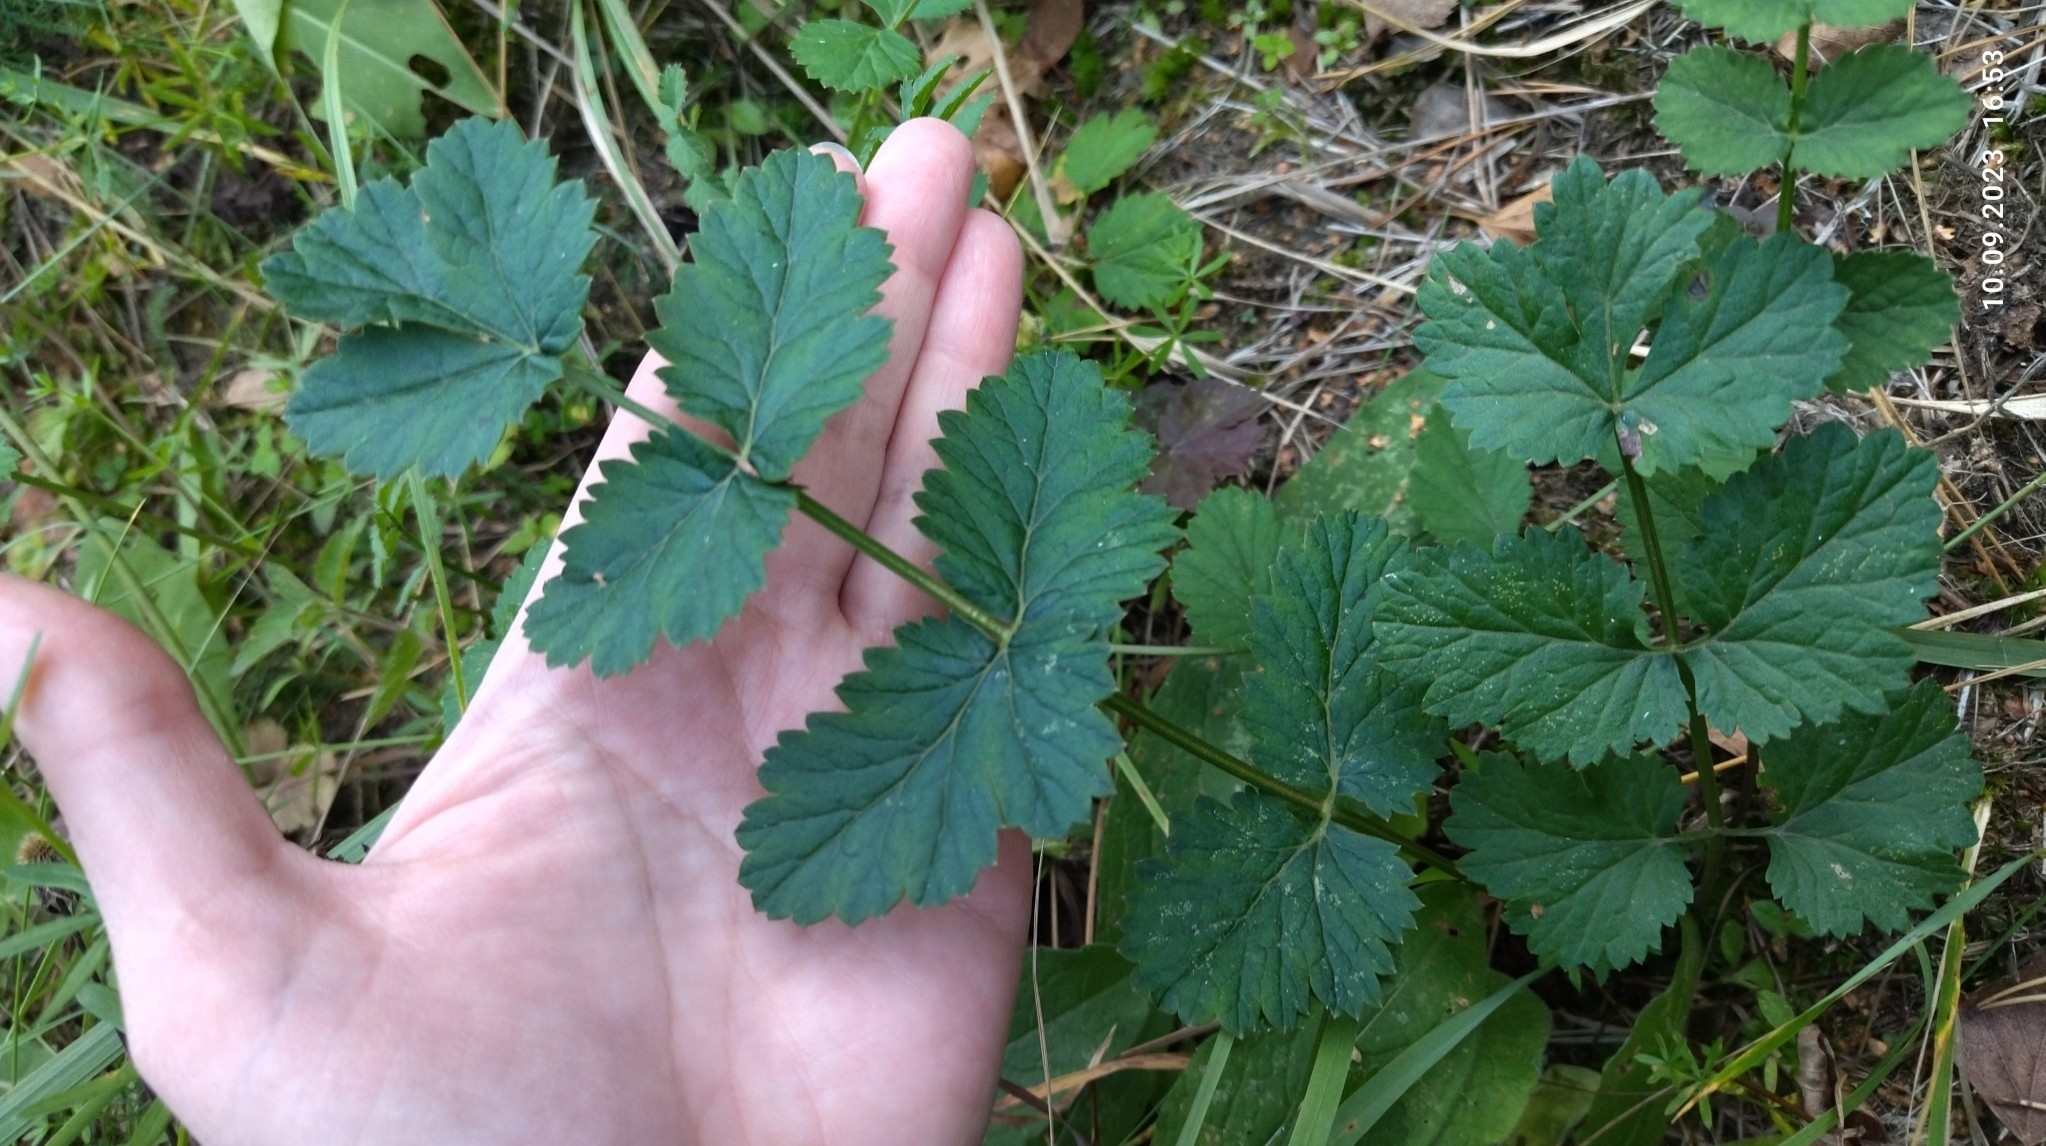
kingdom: Plantae
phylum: Tracheophyta
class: Magnoliopsida
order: Apiales
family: Apiaceae
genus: Pimpinella
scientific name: Pimpinella saxifraga
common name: Burnet-saxifrage
